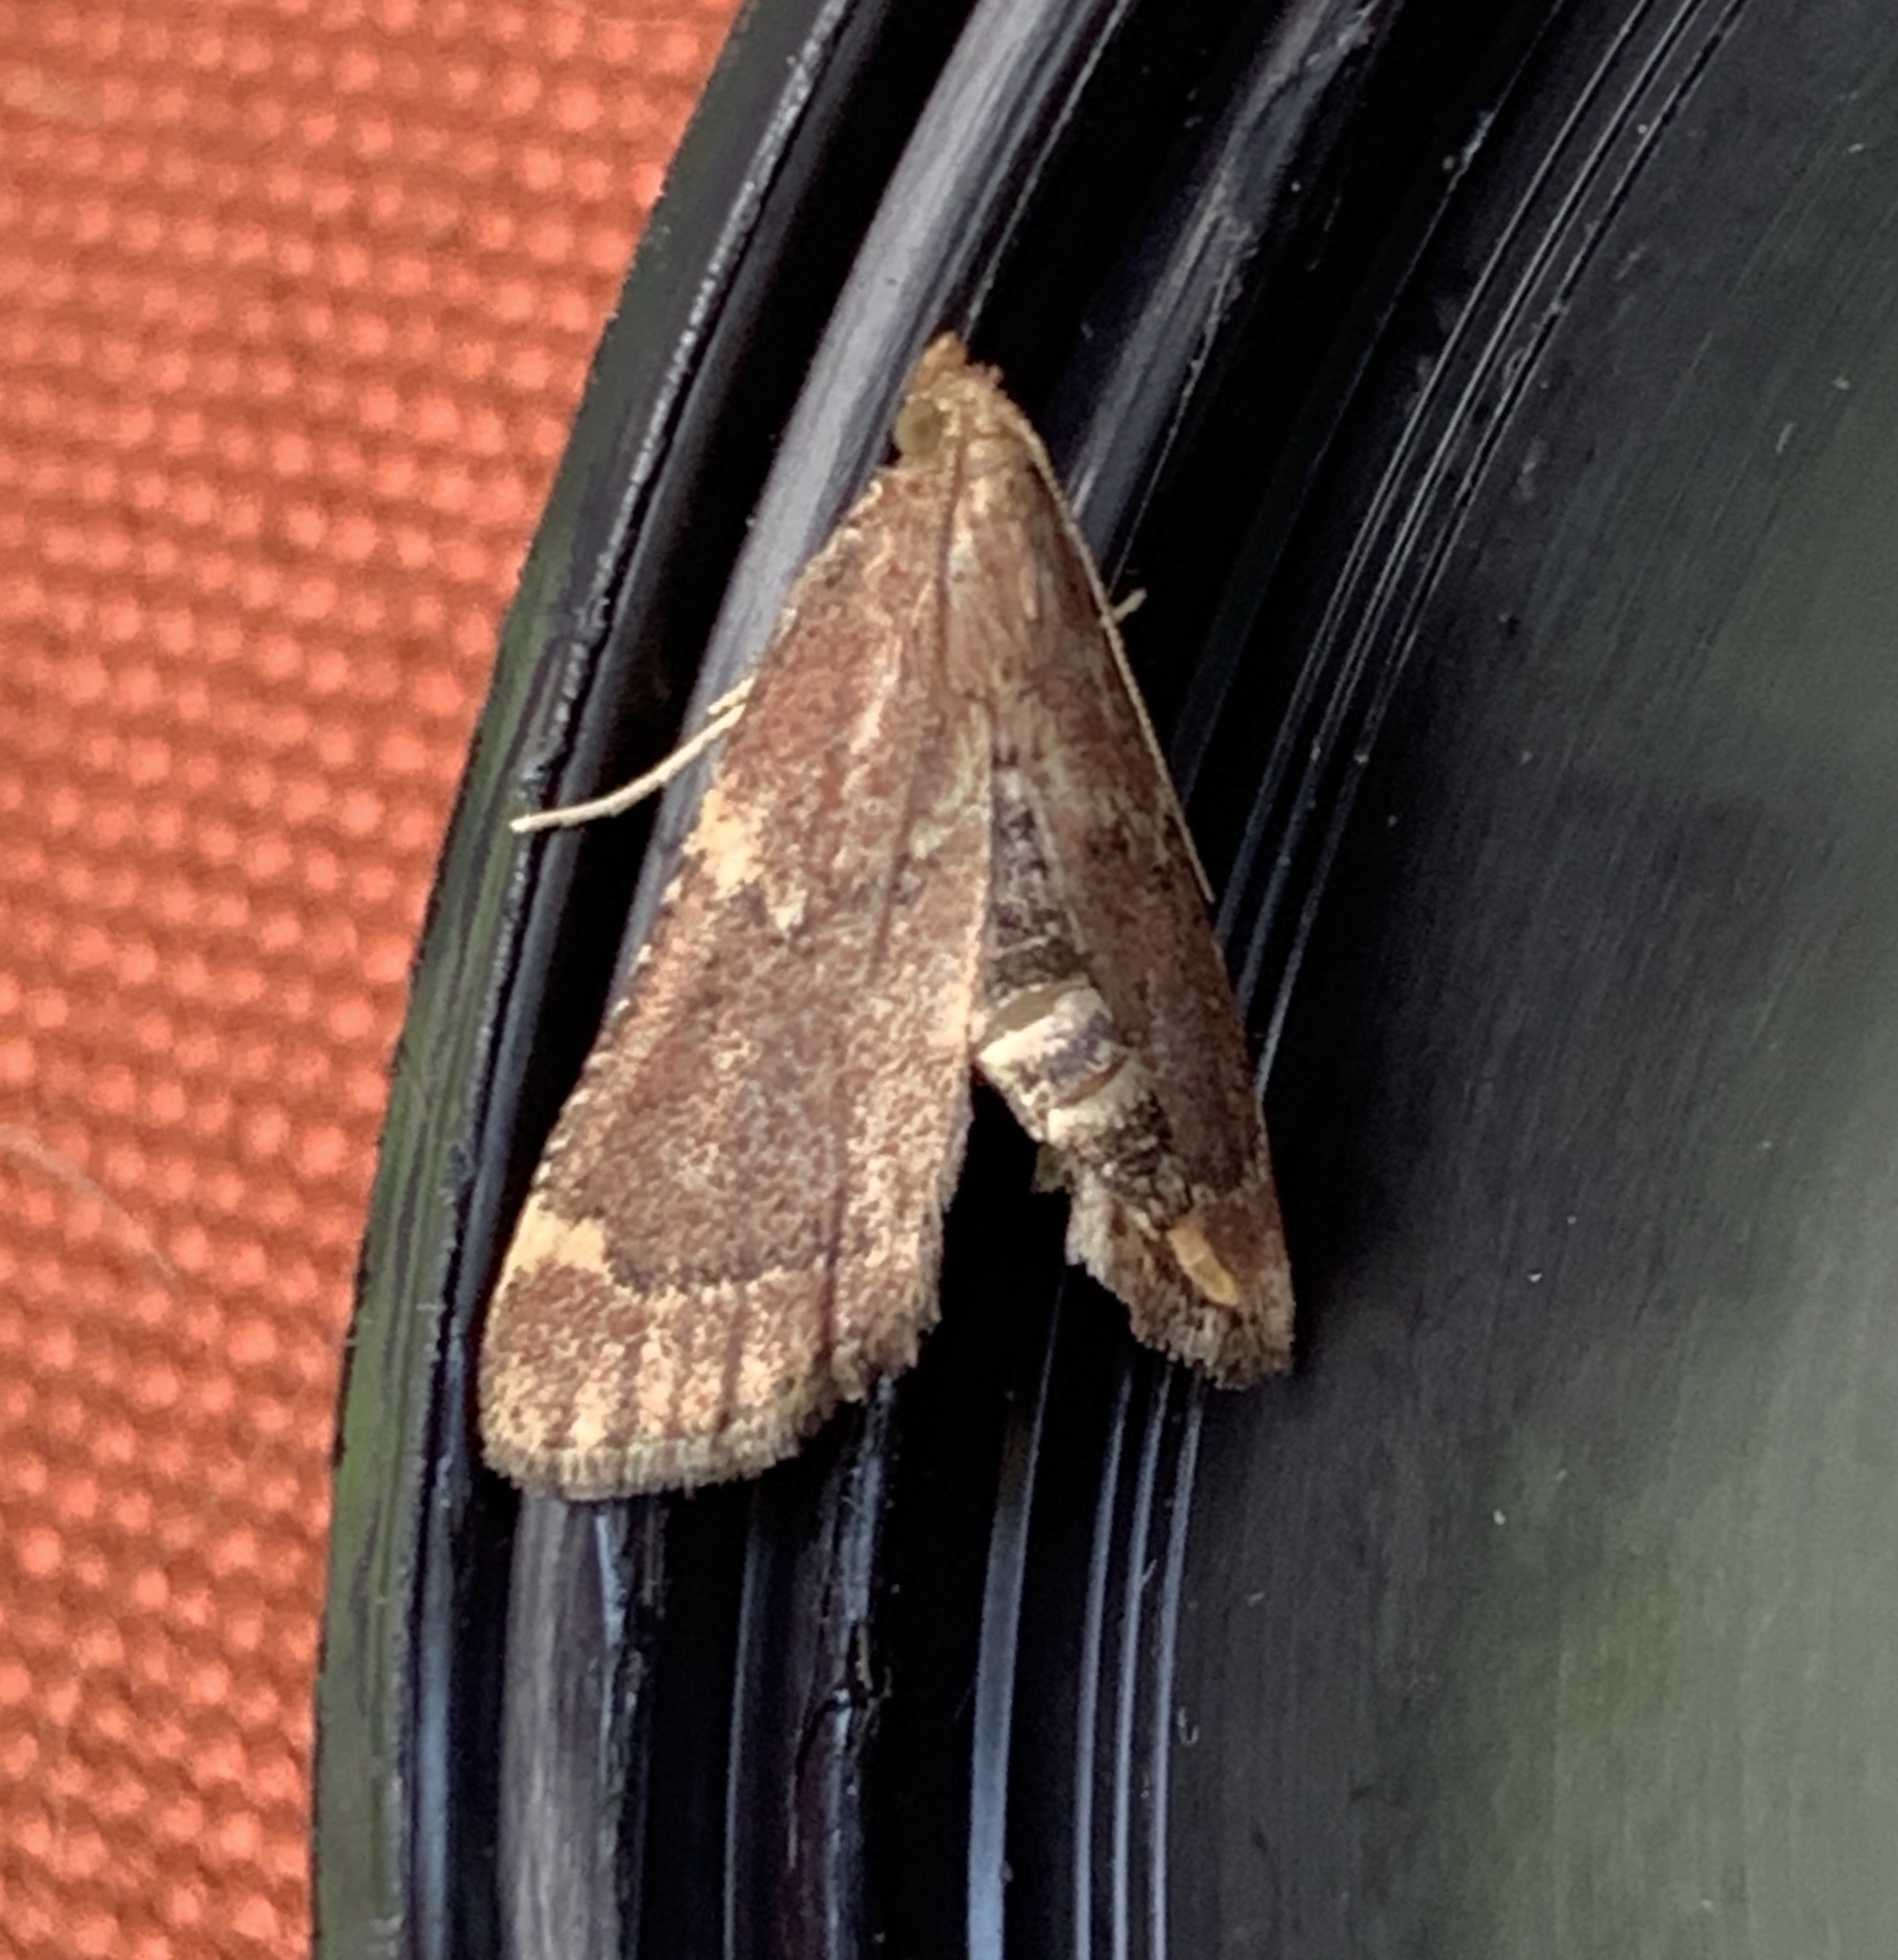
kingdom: Animalia
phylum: Arthropoda
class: Insecta
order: Lepidoptera
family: Pyralidae
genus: Hypsopygia
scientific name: Hypsopygia intermedialis
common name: Red-shawled moth
